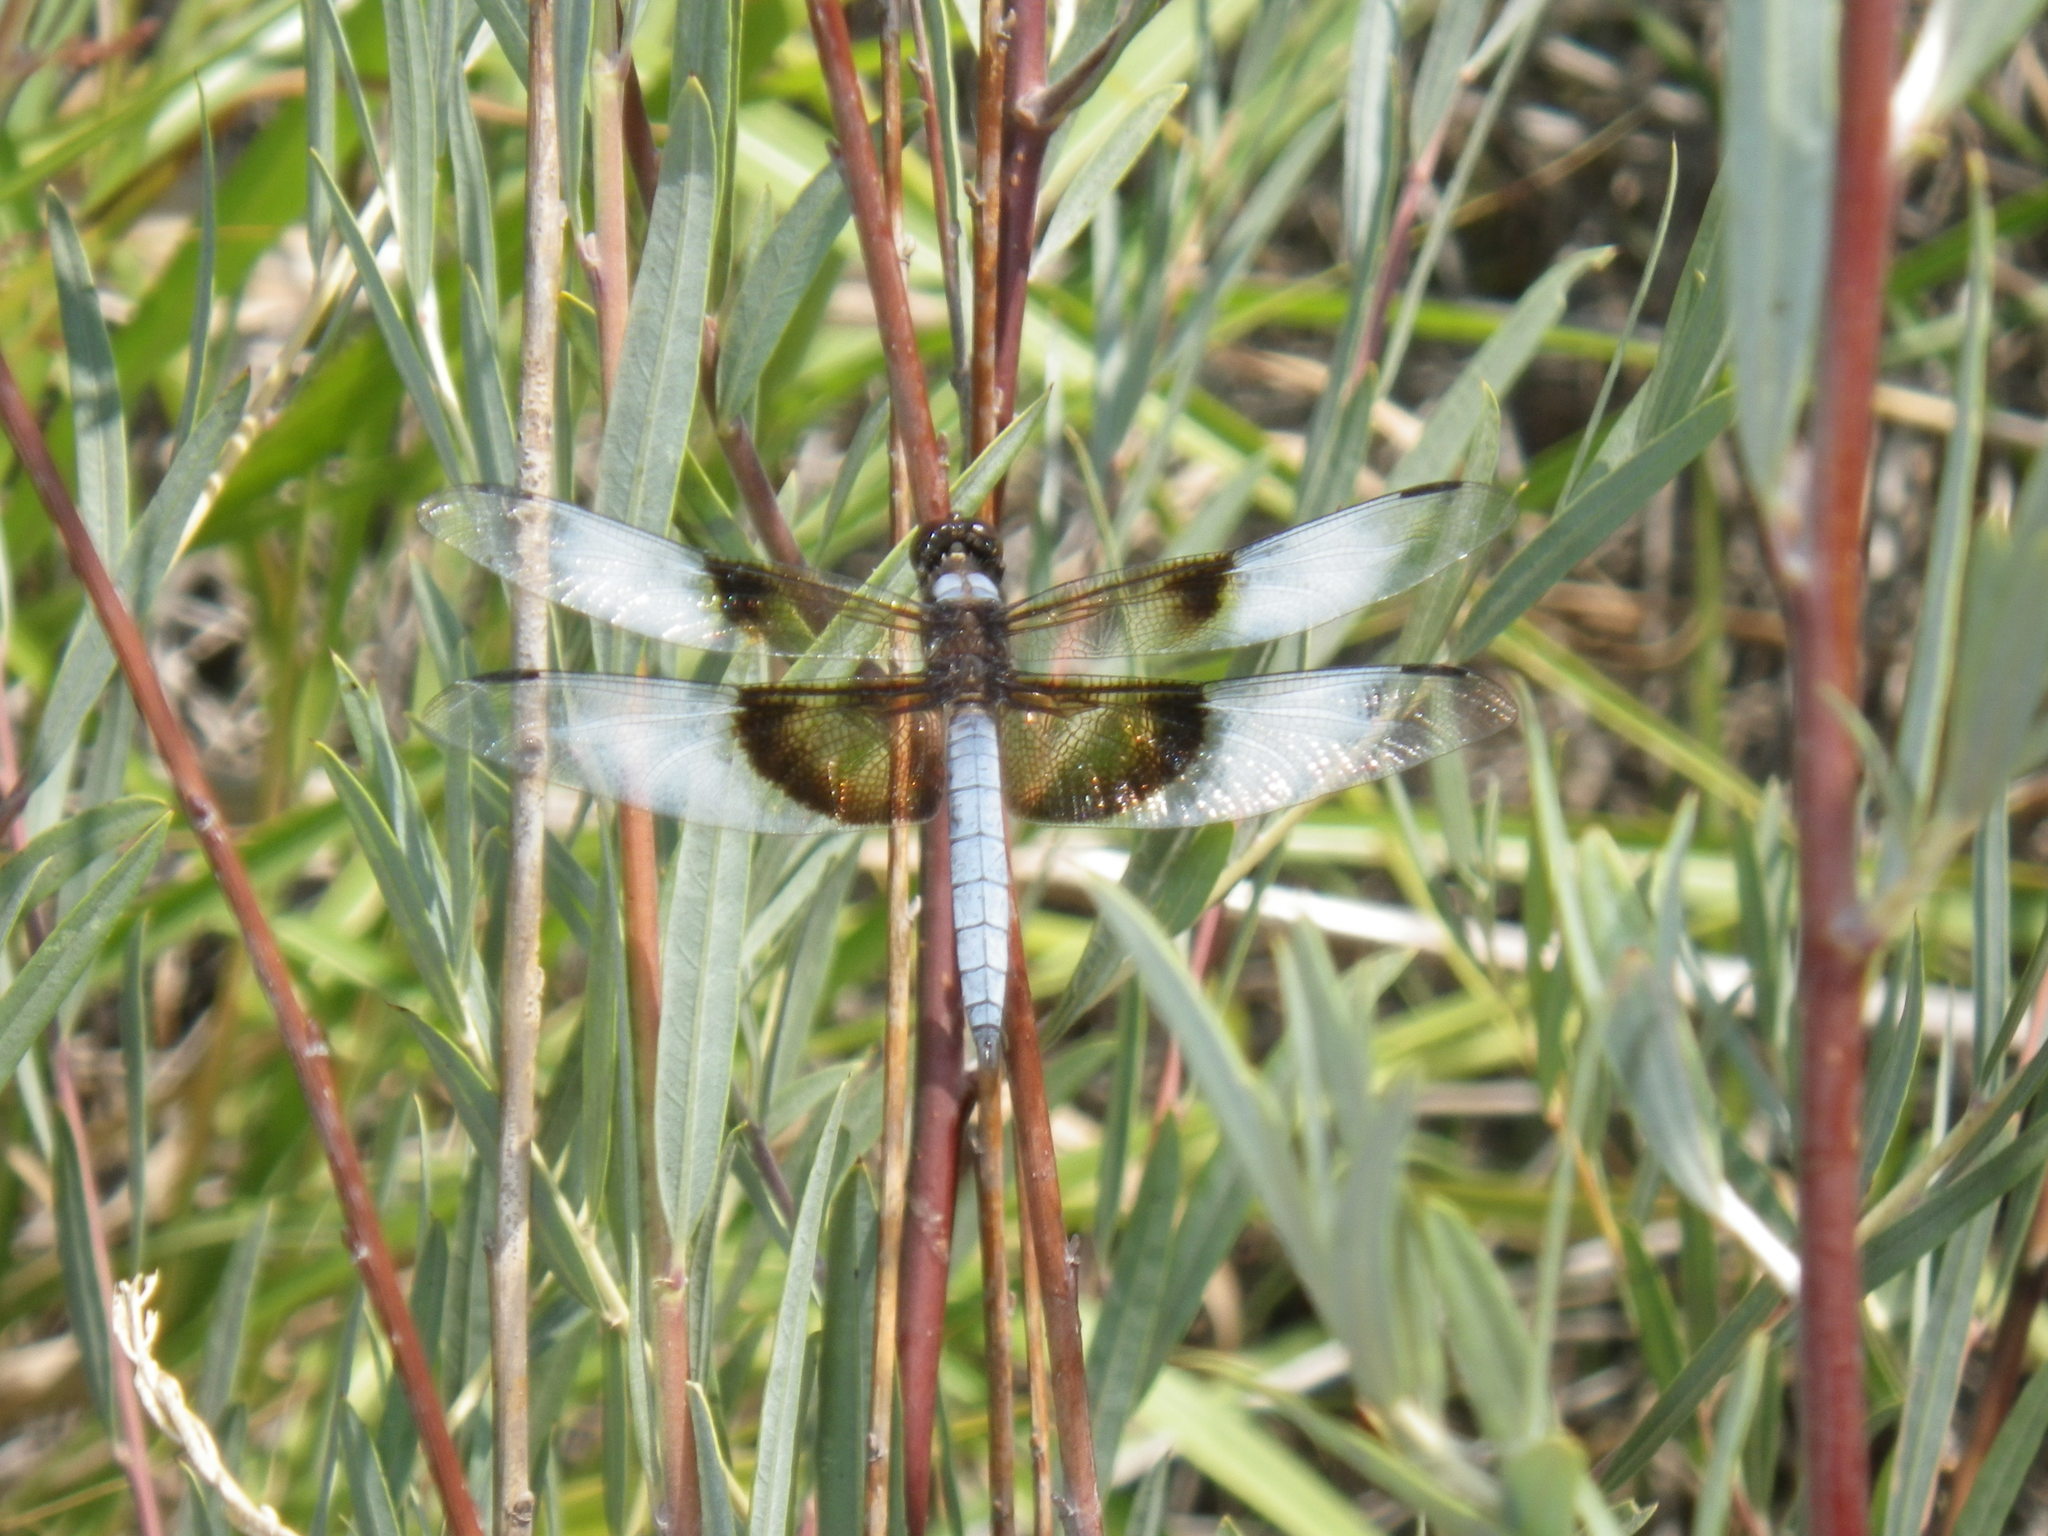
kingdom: Animalia
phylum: Arthropoda
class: Insecta
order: Odonata
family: Libellulidae
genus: Libellula
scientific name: Libellula luctuosa
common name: Widow skimmer
